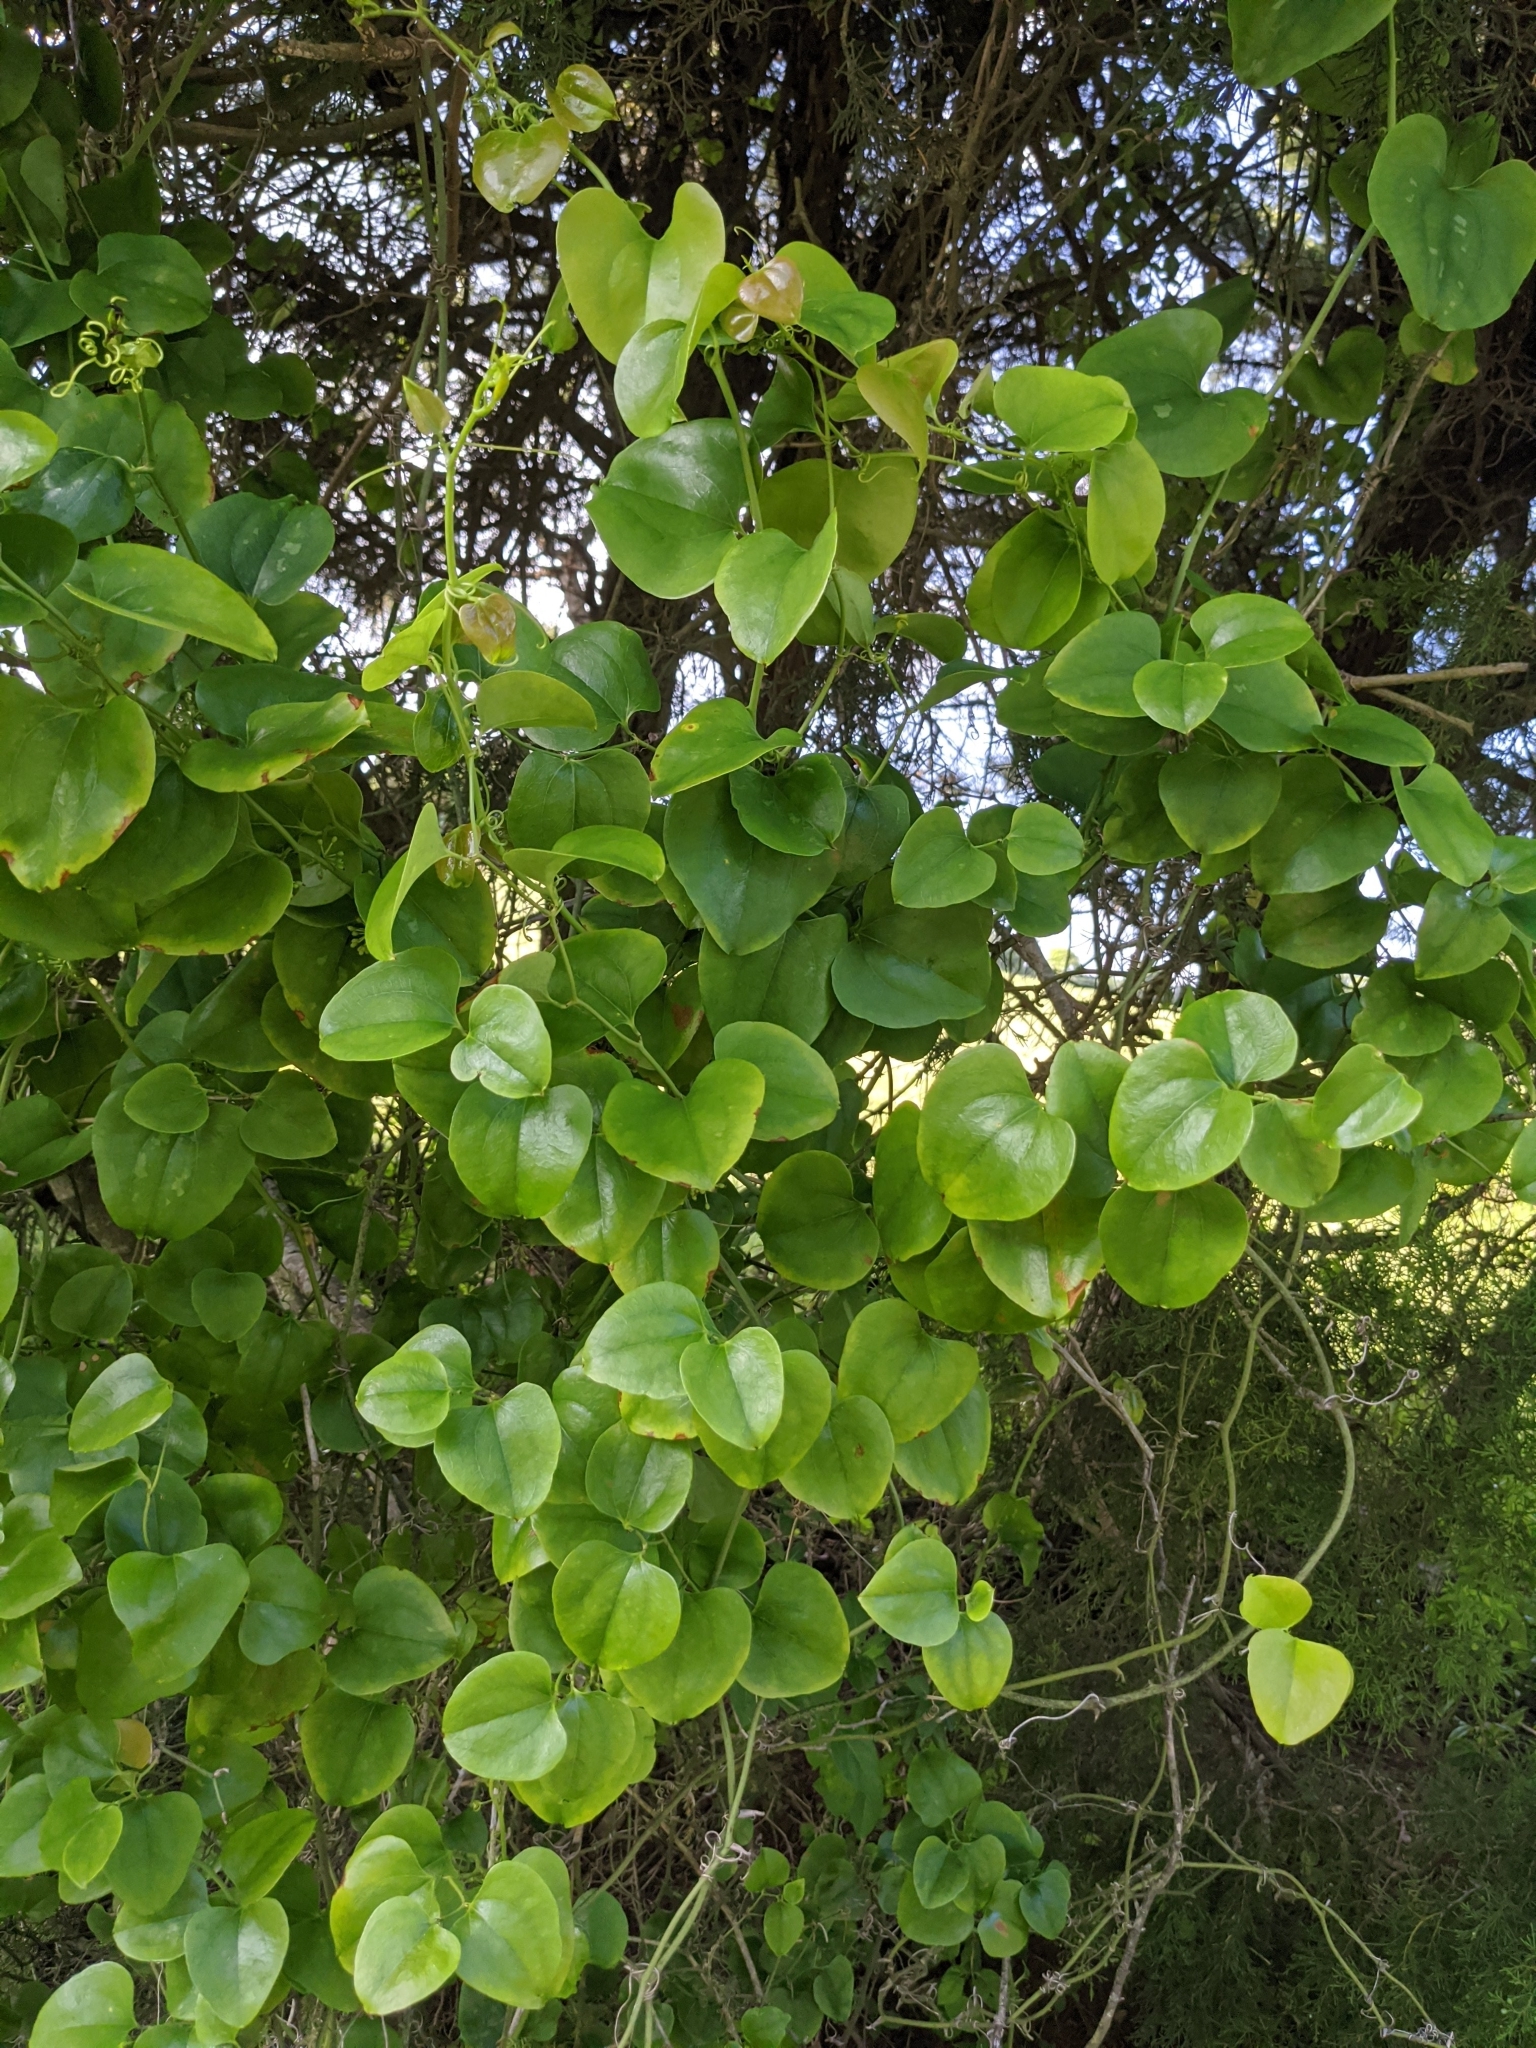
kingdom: Plantae
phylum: Tracheophyta
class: Liliopsida
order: Liliales
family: Smilacaceae
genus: Smilax
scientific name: Smilax rotundifolia
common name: Bullbriar
